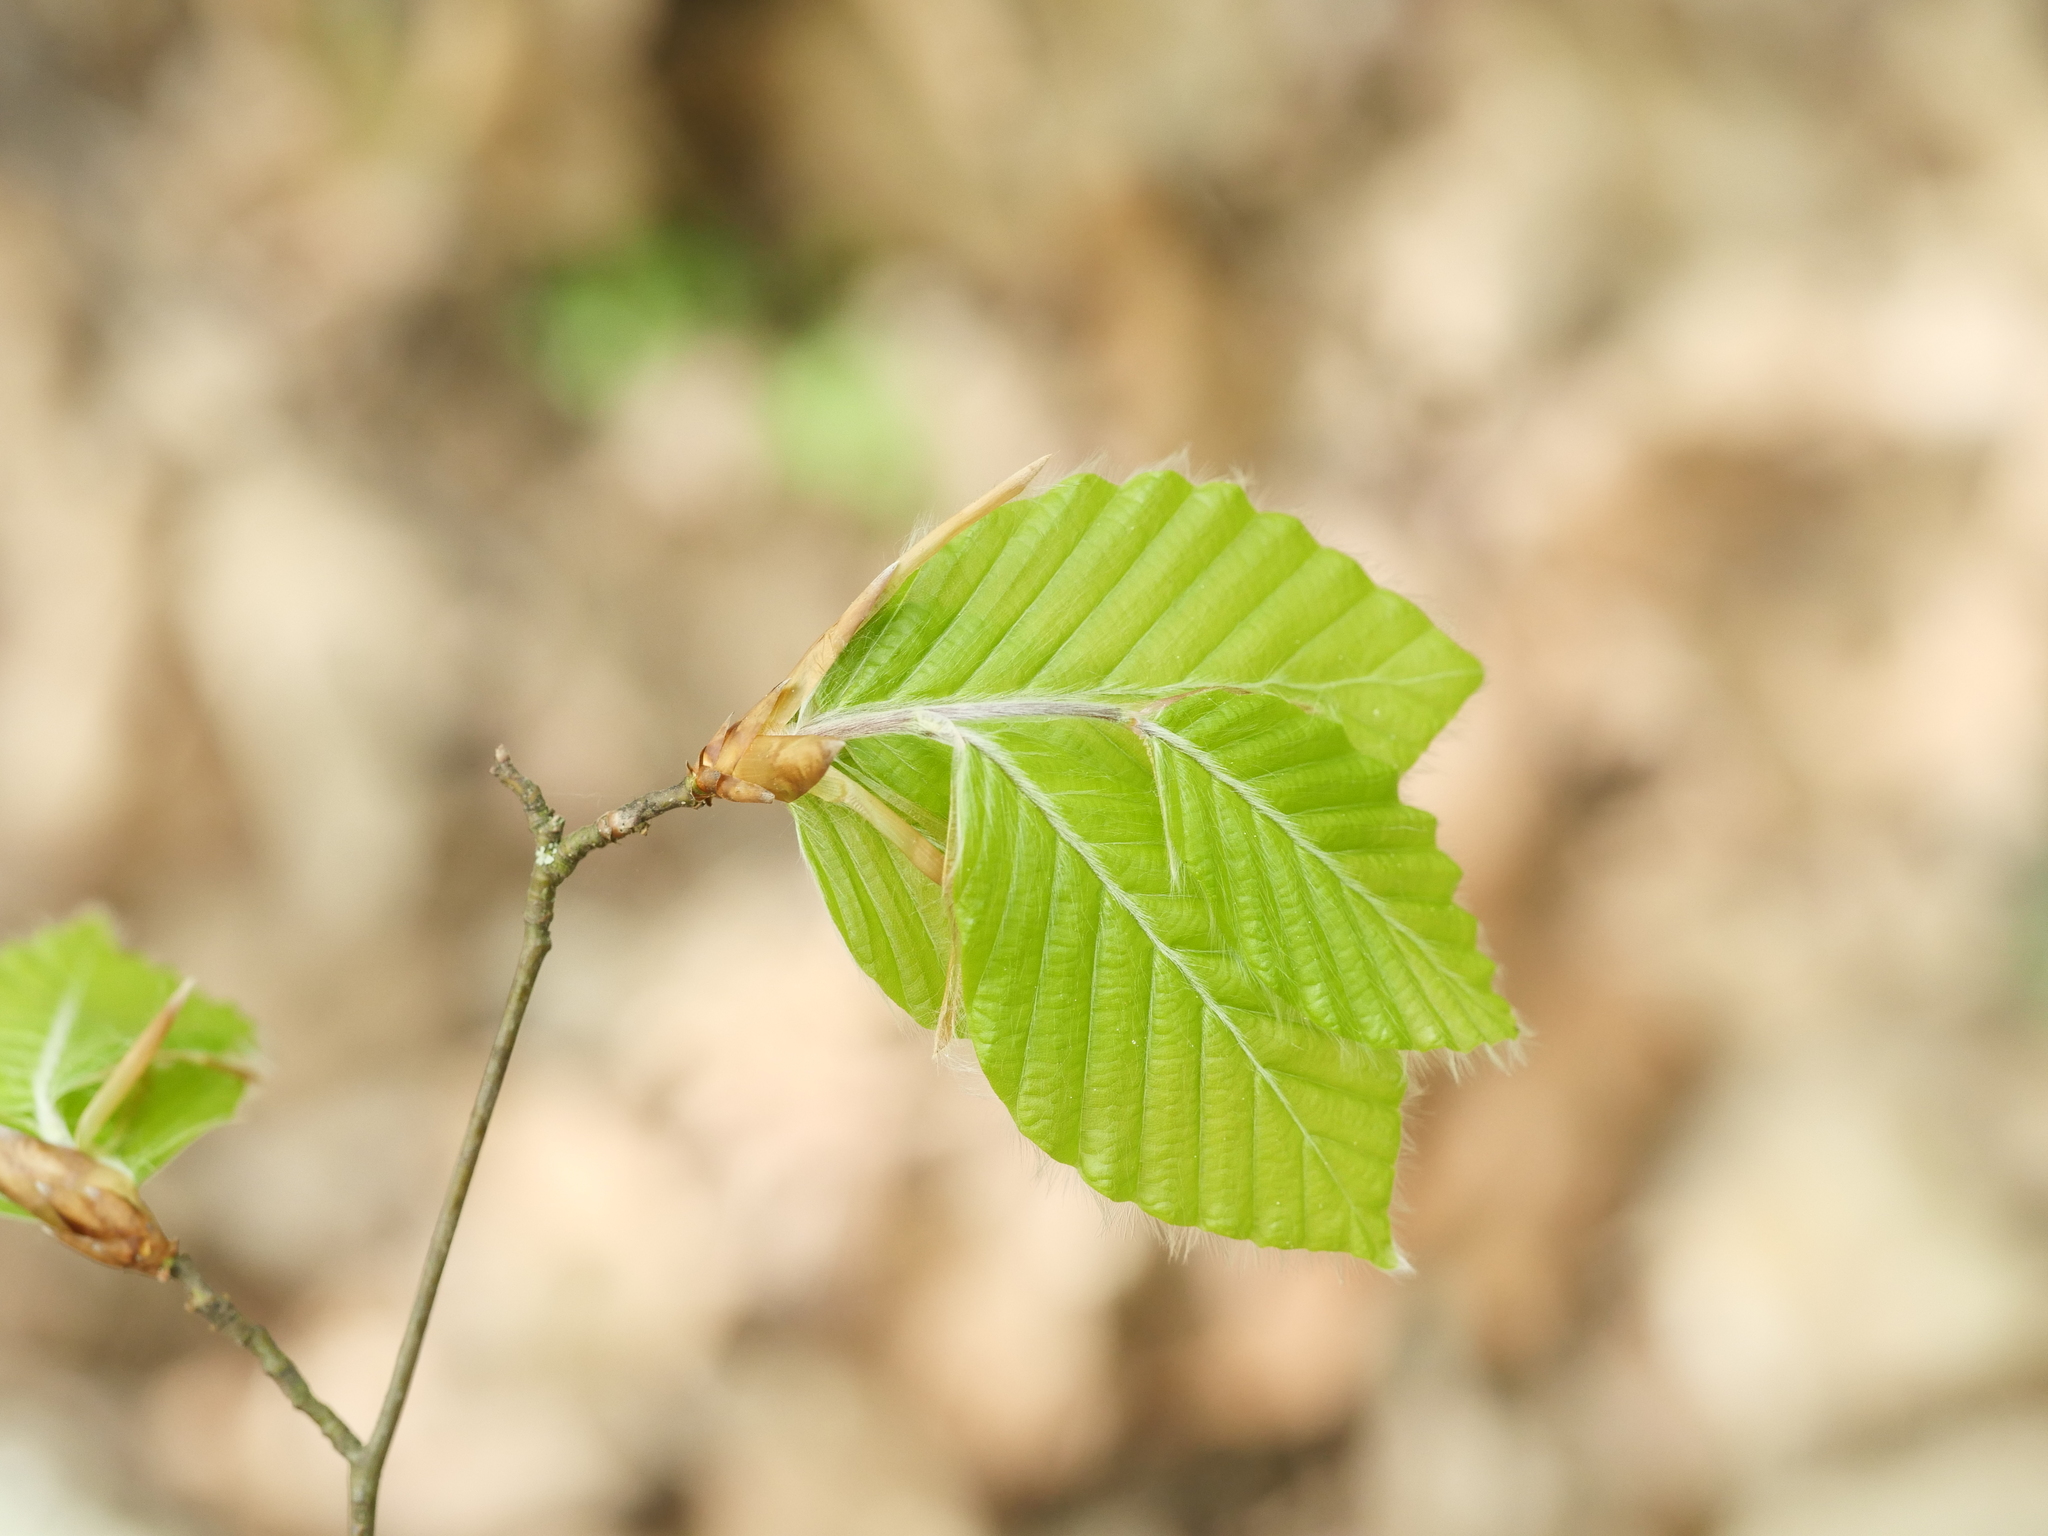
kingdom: Plantae
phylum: Tracheophyta
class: Magnoliopsida
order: Fagales
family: Fagaceae
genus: Fagus
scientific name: Fagus sylvatica
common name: Beech
